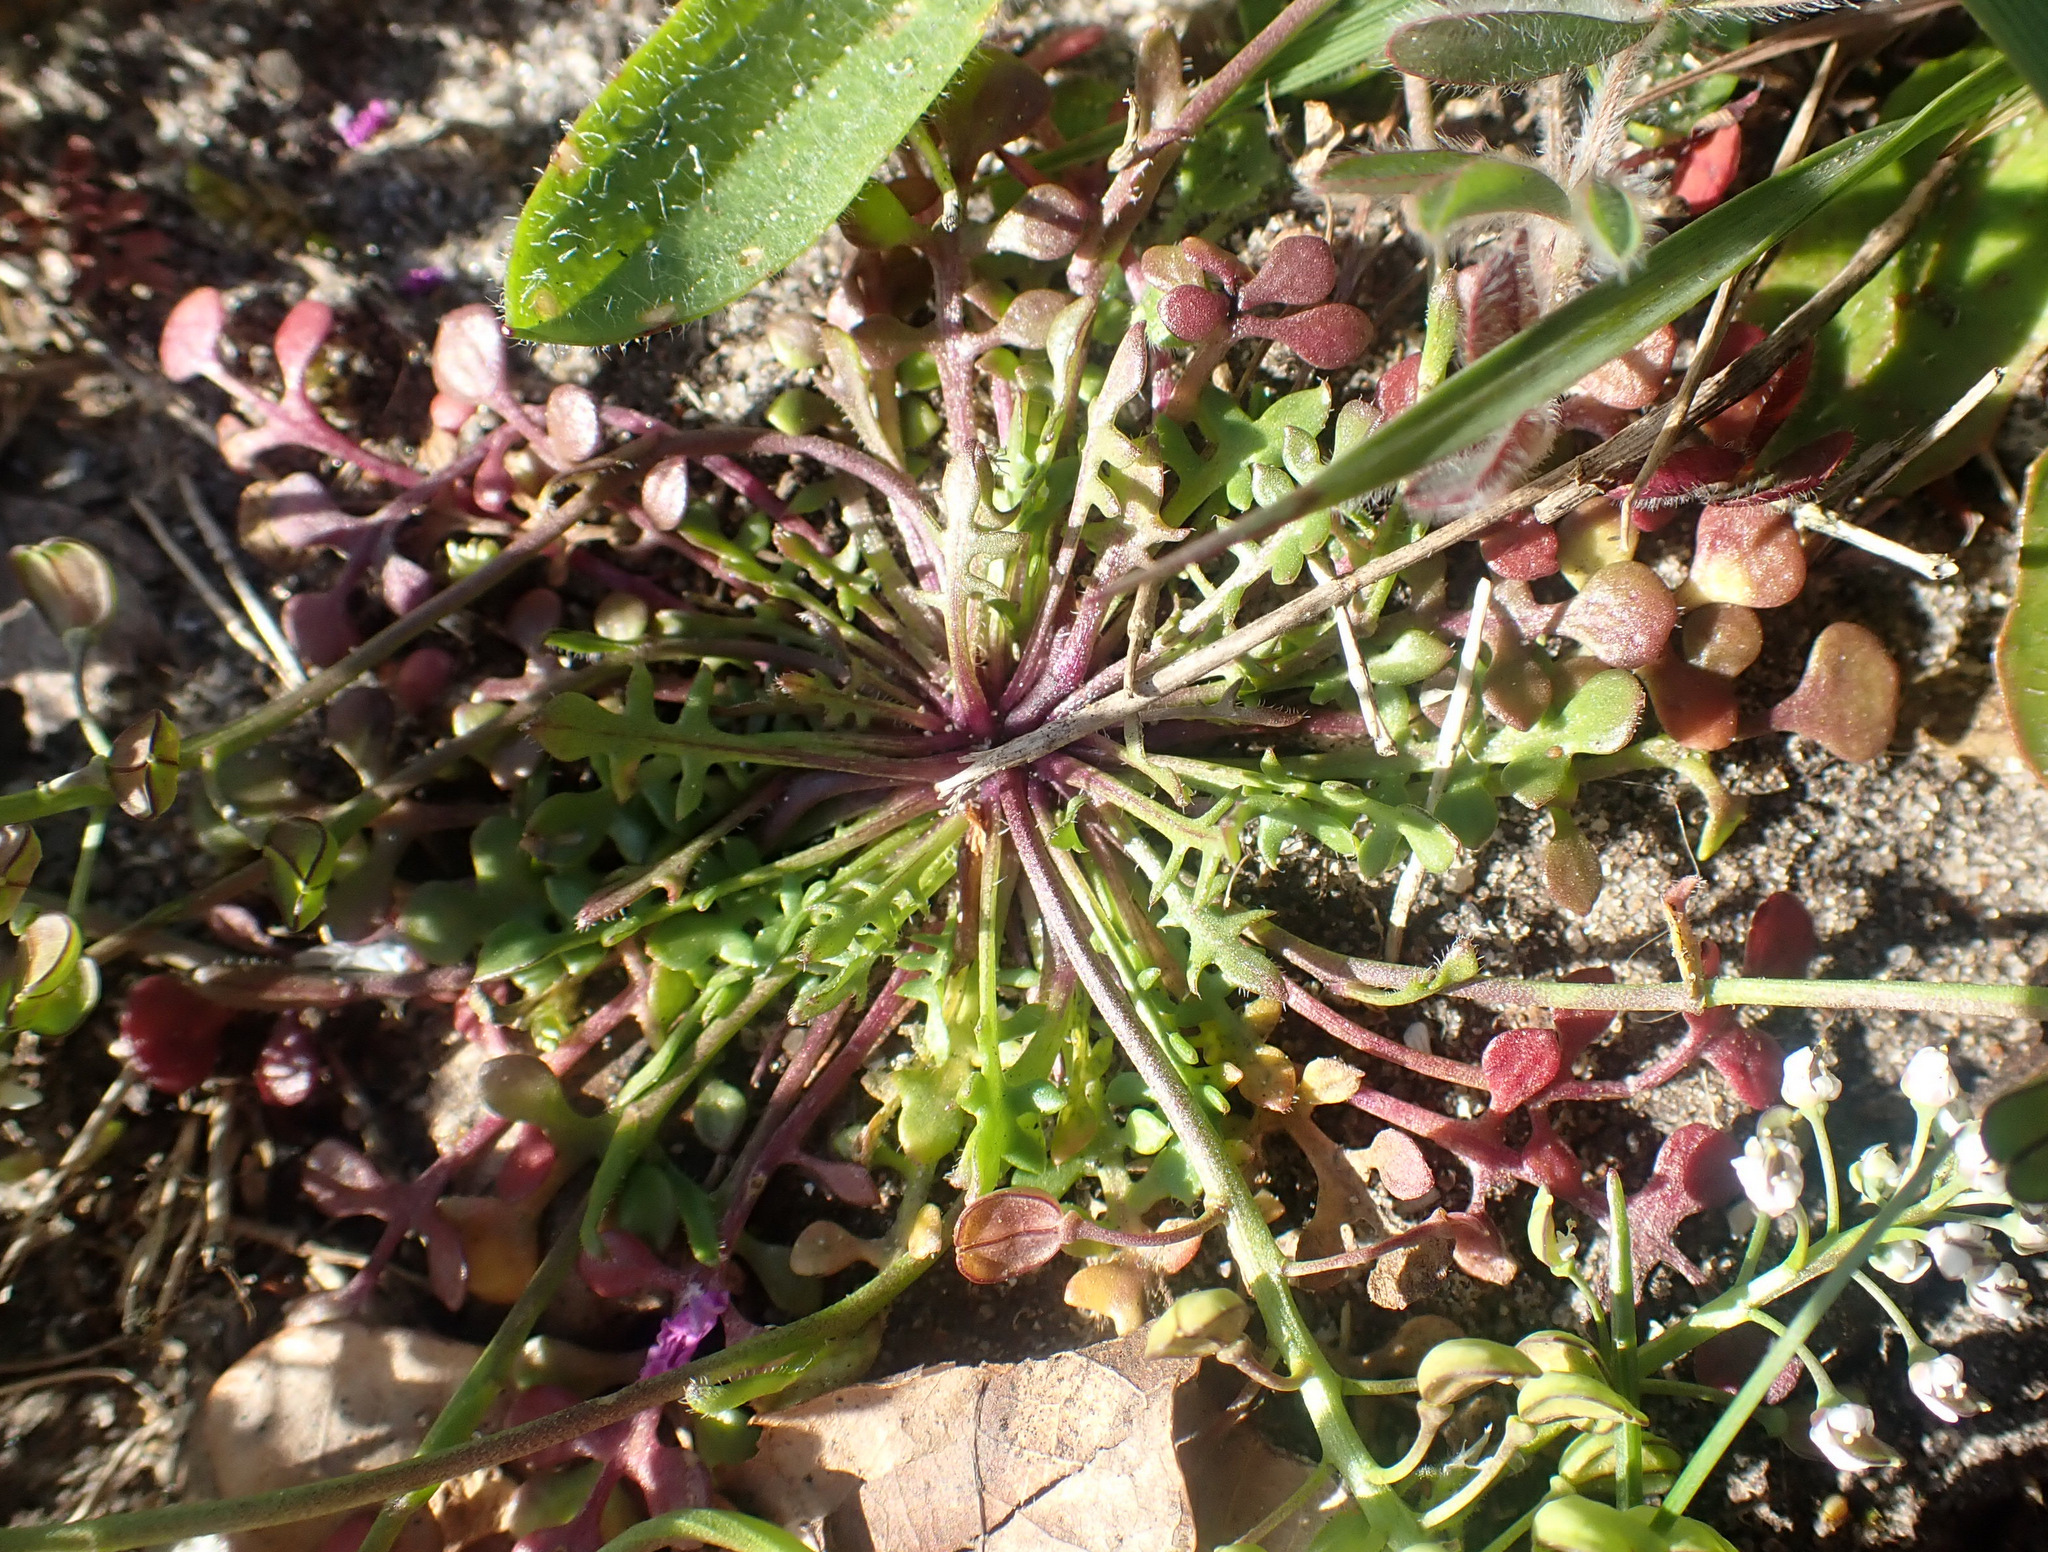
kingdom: Plantae
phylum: Tracheophyta
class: Magnoliopsida
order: Brassicales
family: Brassicaceae
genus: Teesdalia
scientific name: Teesdalia nudicaulis
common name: Shepherd's cress
